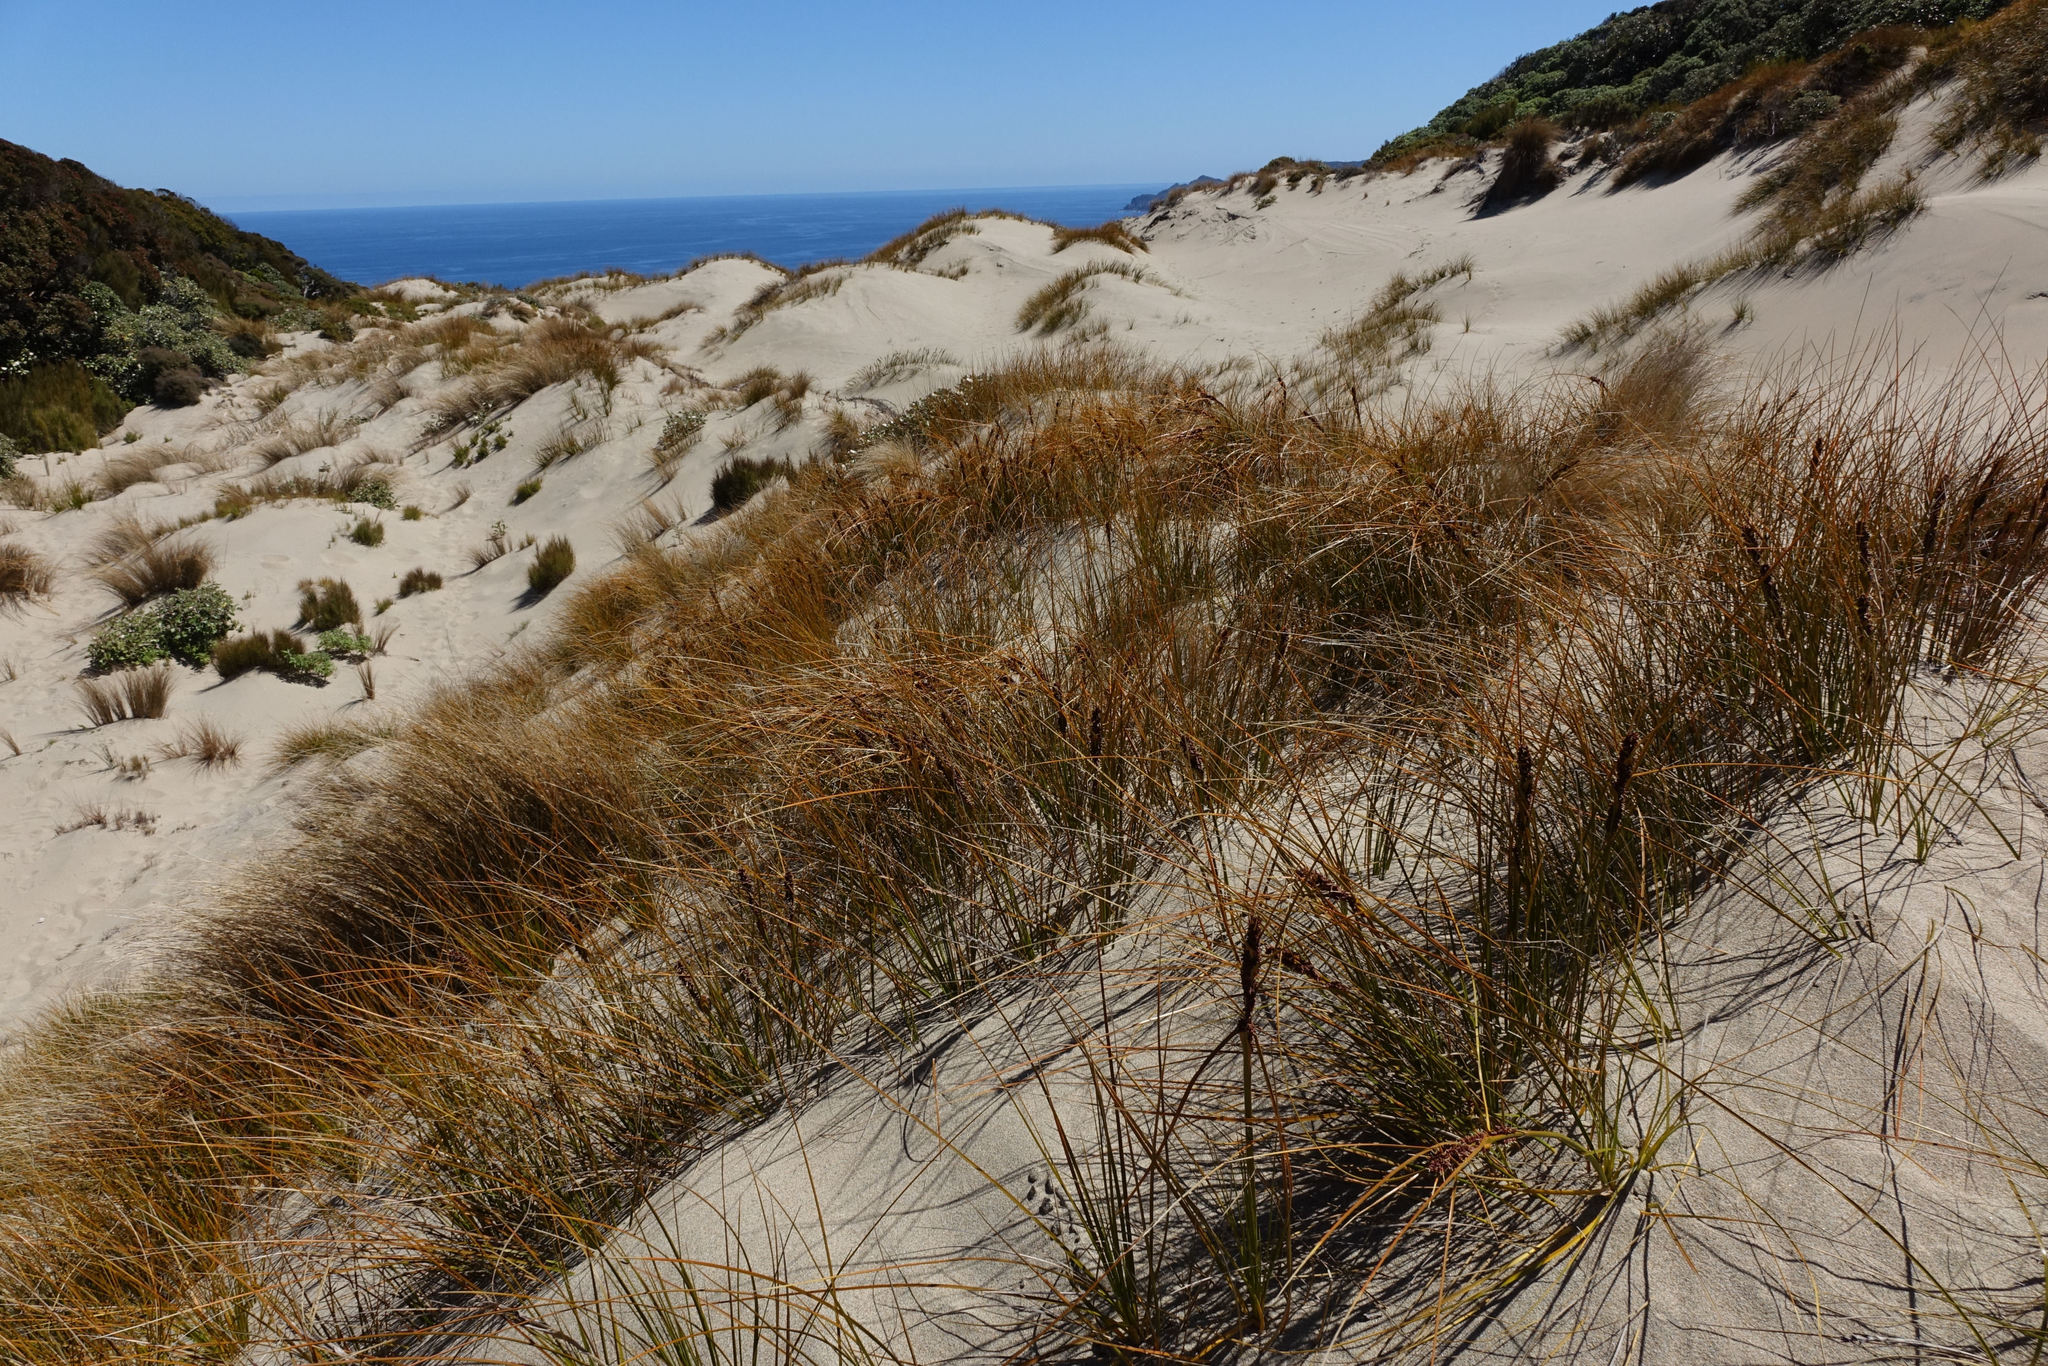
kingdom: Plantae
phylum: Tracheophyta
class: Liliopsida
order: Poales
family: Cyperaceae
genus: Ficinia
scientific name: Ficinia spiralis
